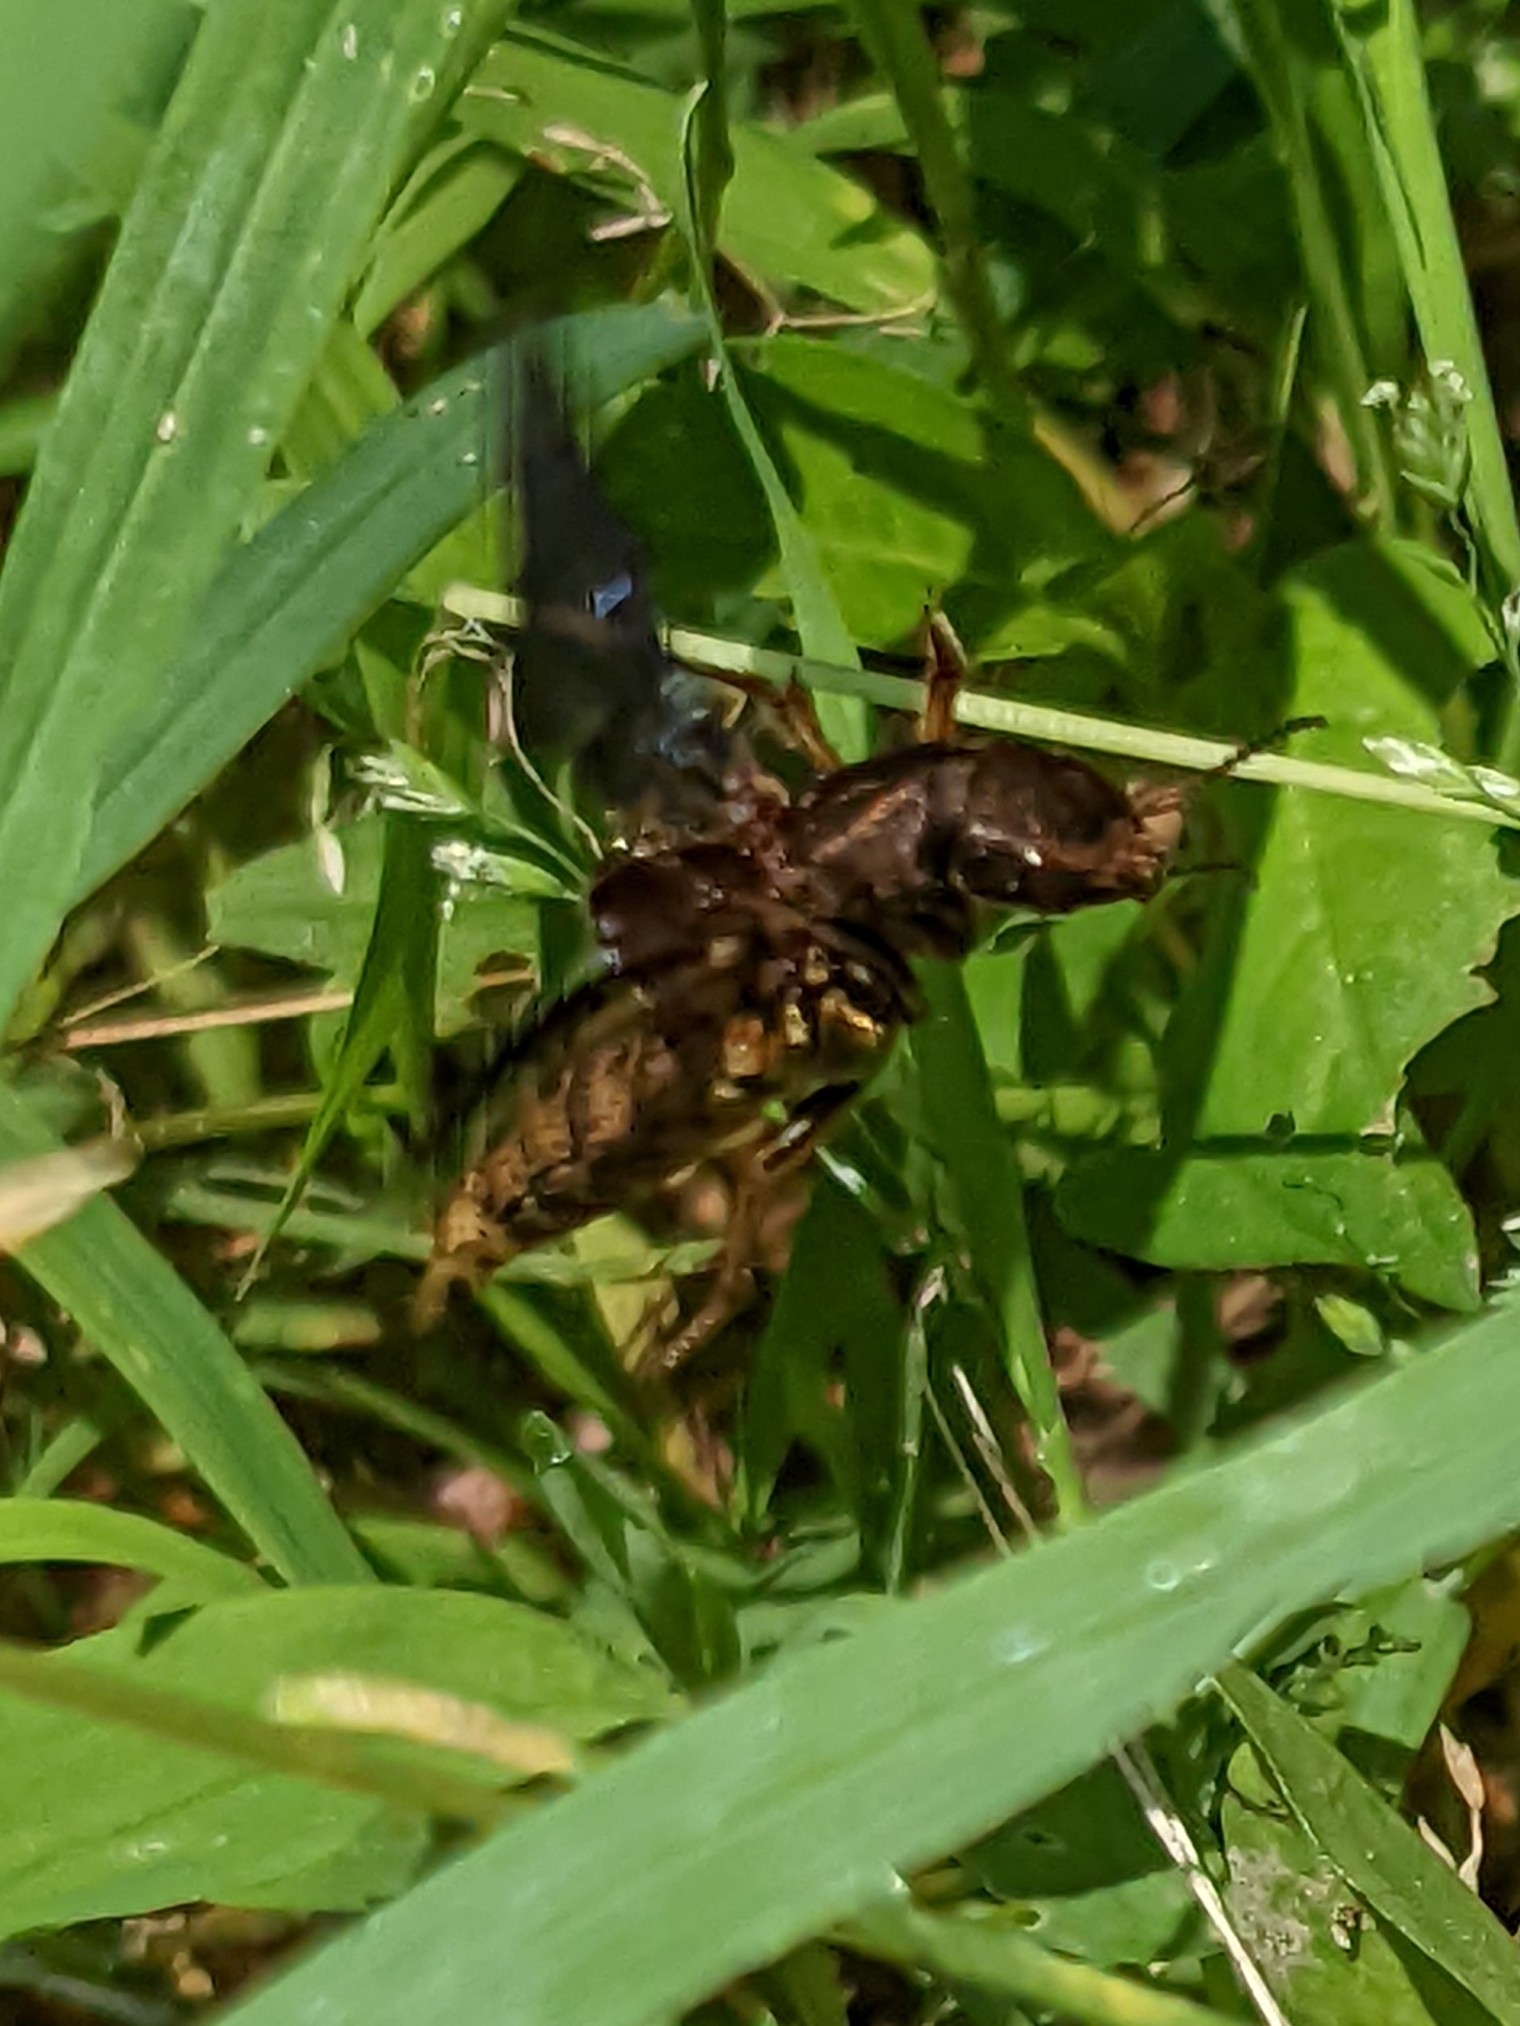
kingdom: Animalia
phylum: Arthropoda
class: Insecta
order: Coleoptera
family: Staphylinidae
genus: Platydracus
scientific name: Platydracus maculosus
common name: Brown rove beetle
